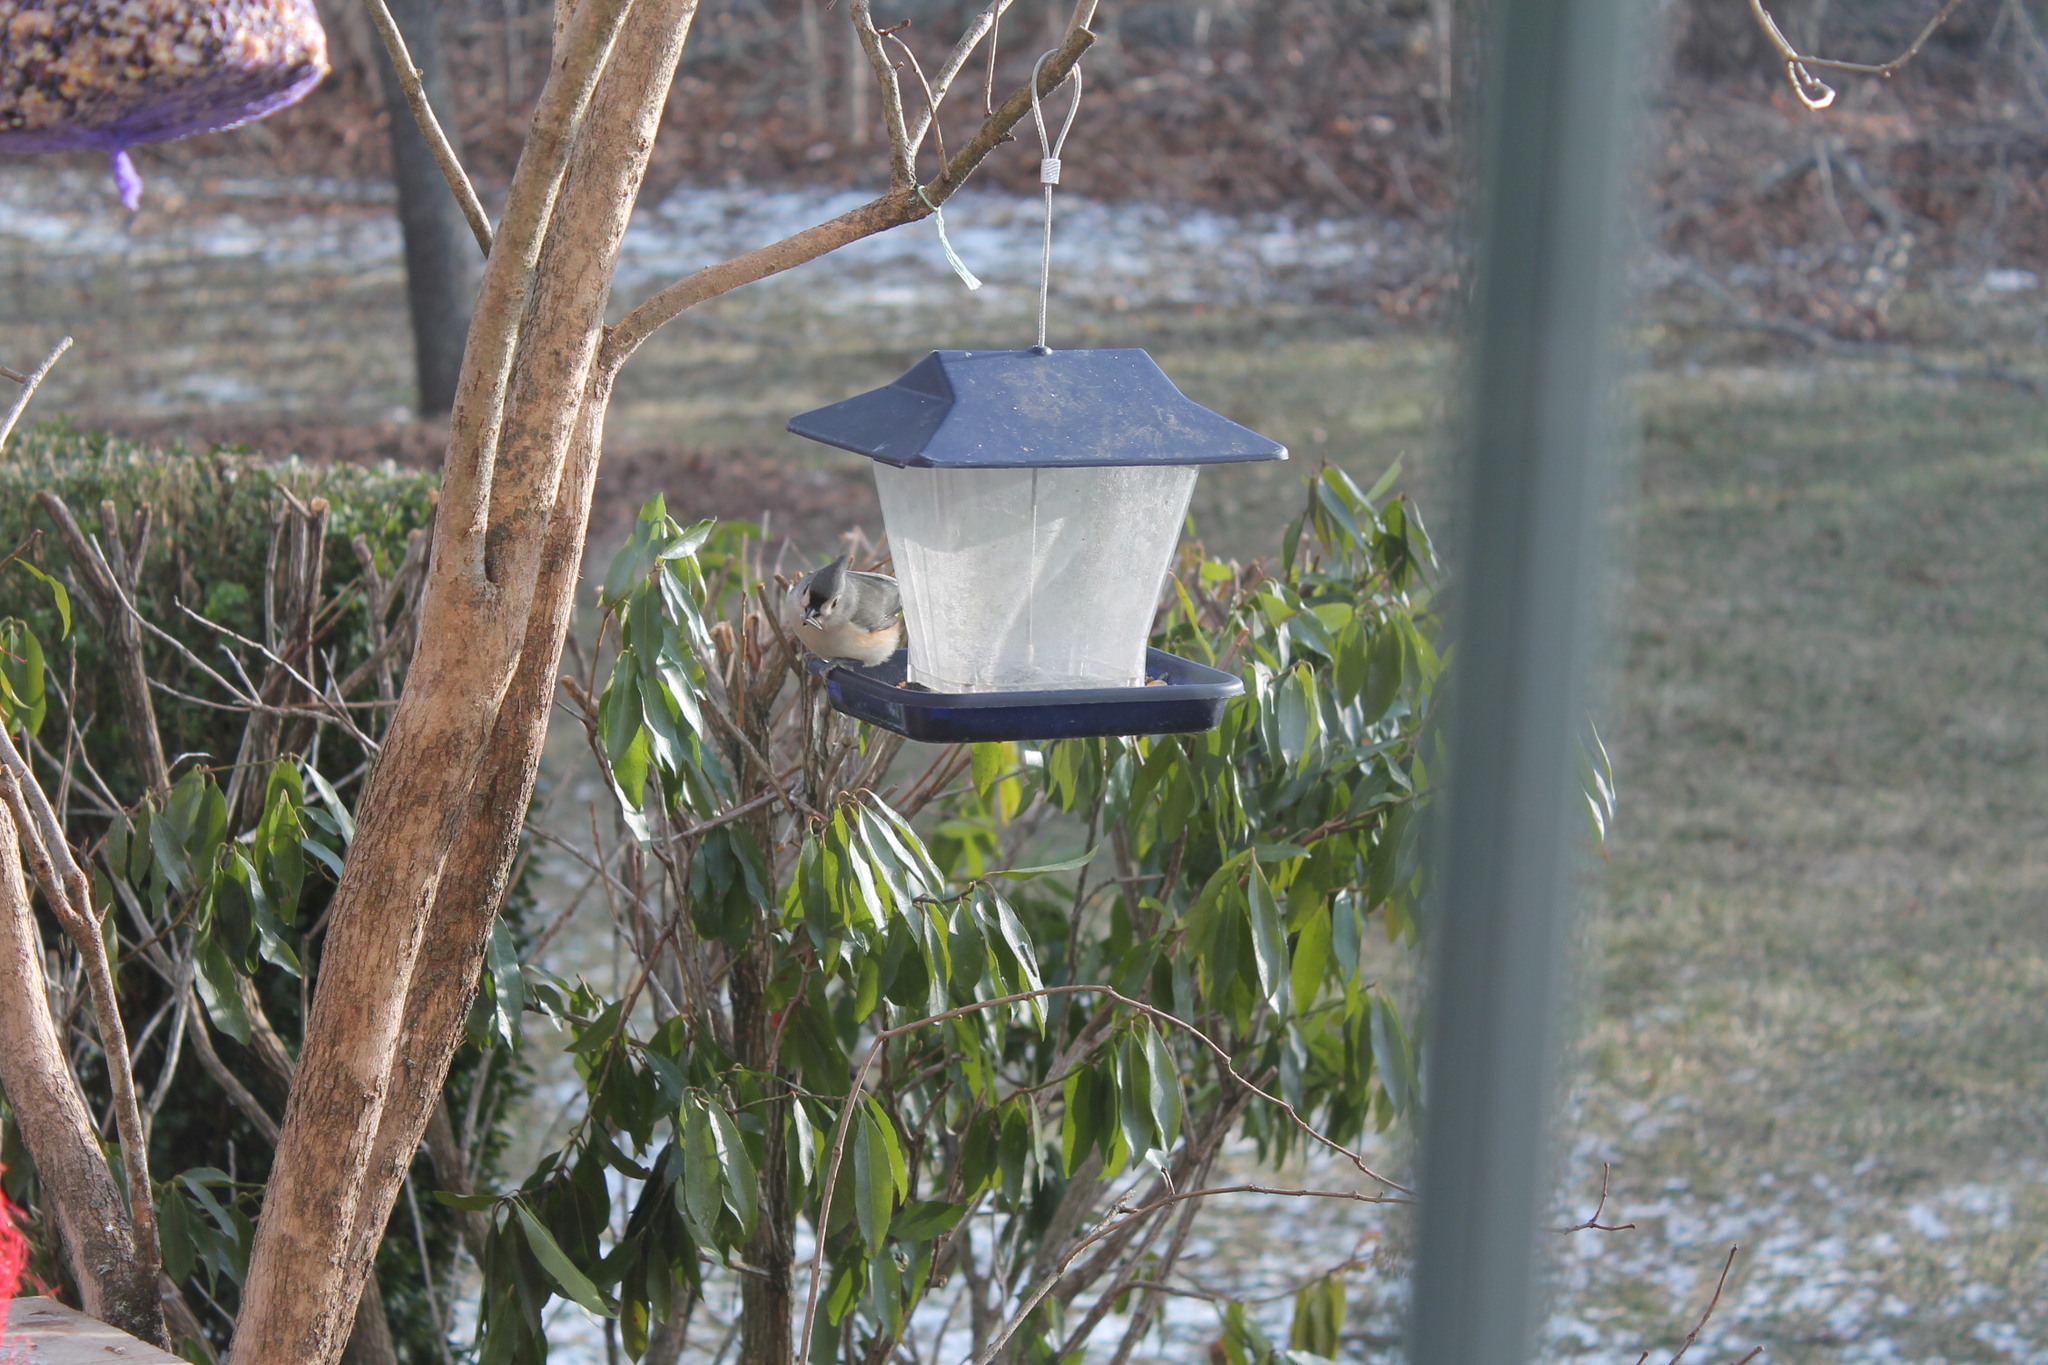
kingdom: Animalia
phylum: Chordata
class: Aves
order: Passeriformes
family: Paridae
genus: Baeolophus
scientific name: Baeolophus bicolor
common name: Tufted titmouse
